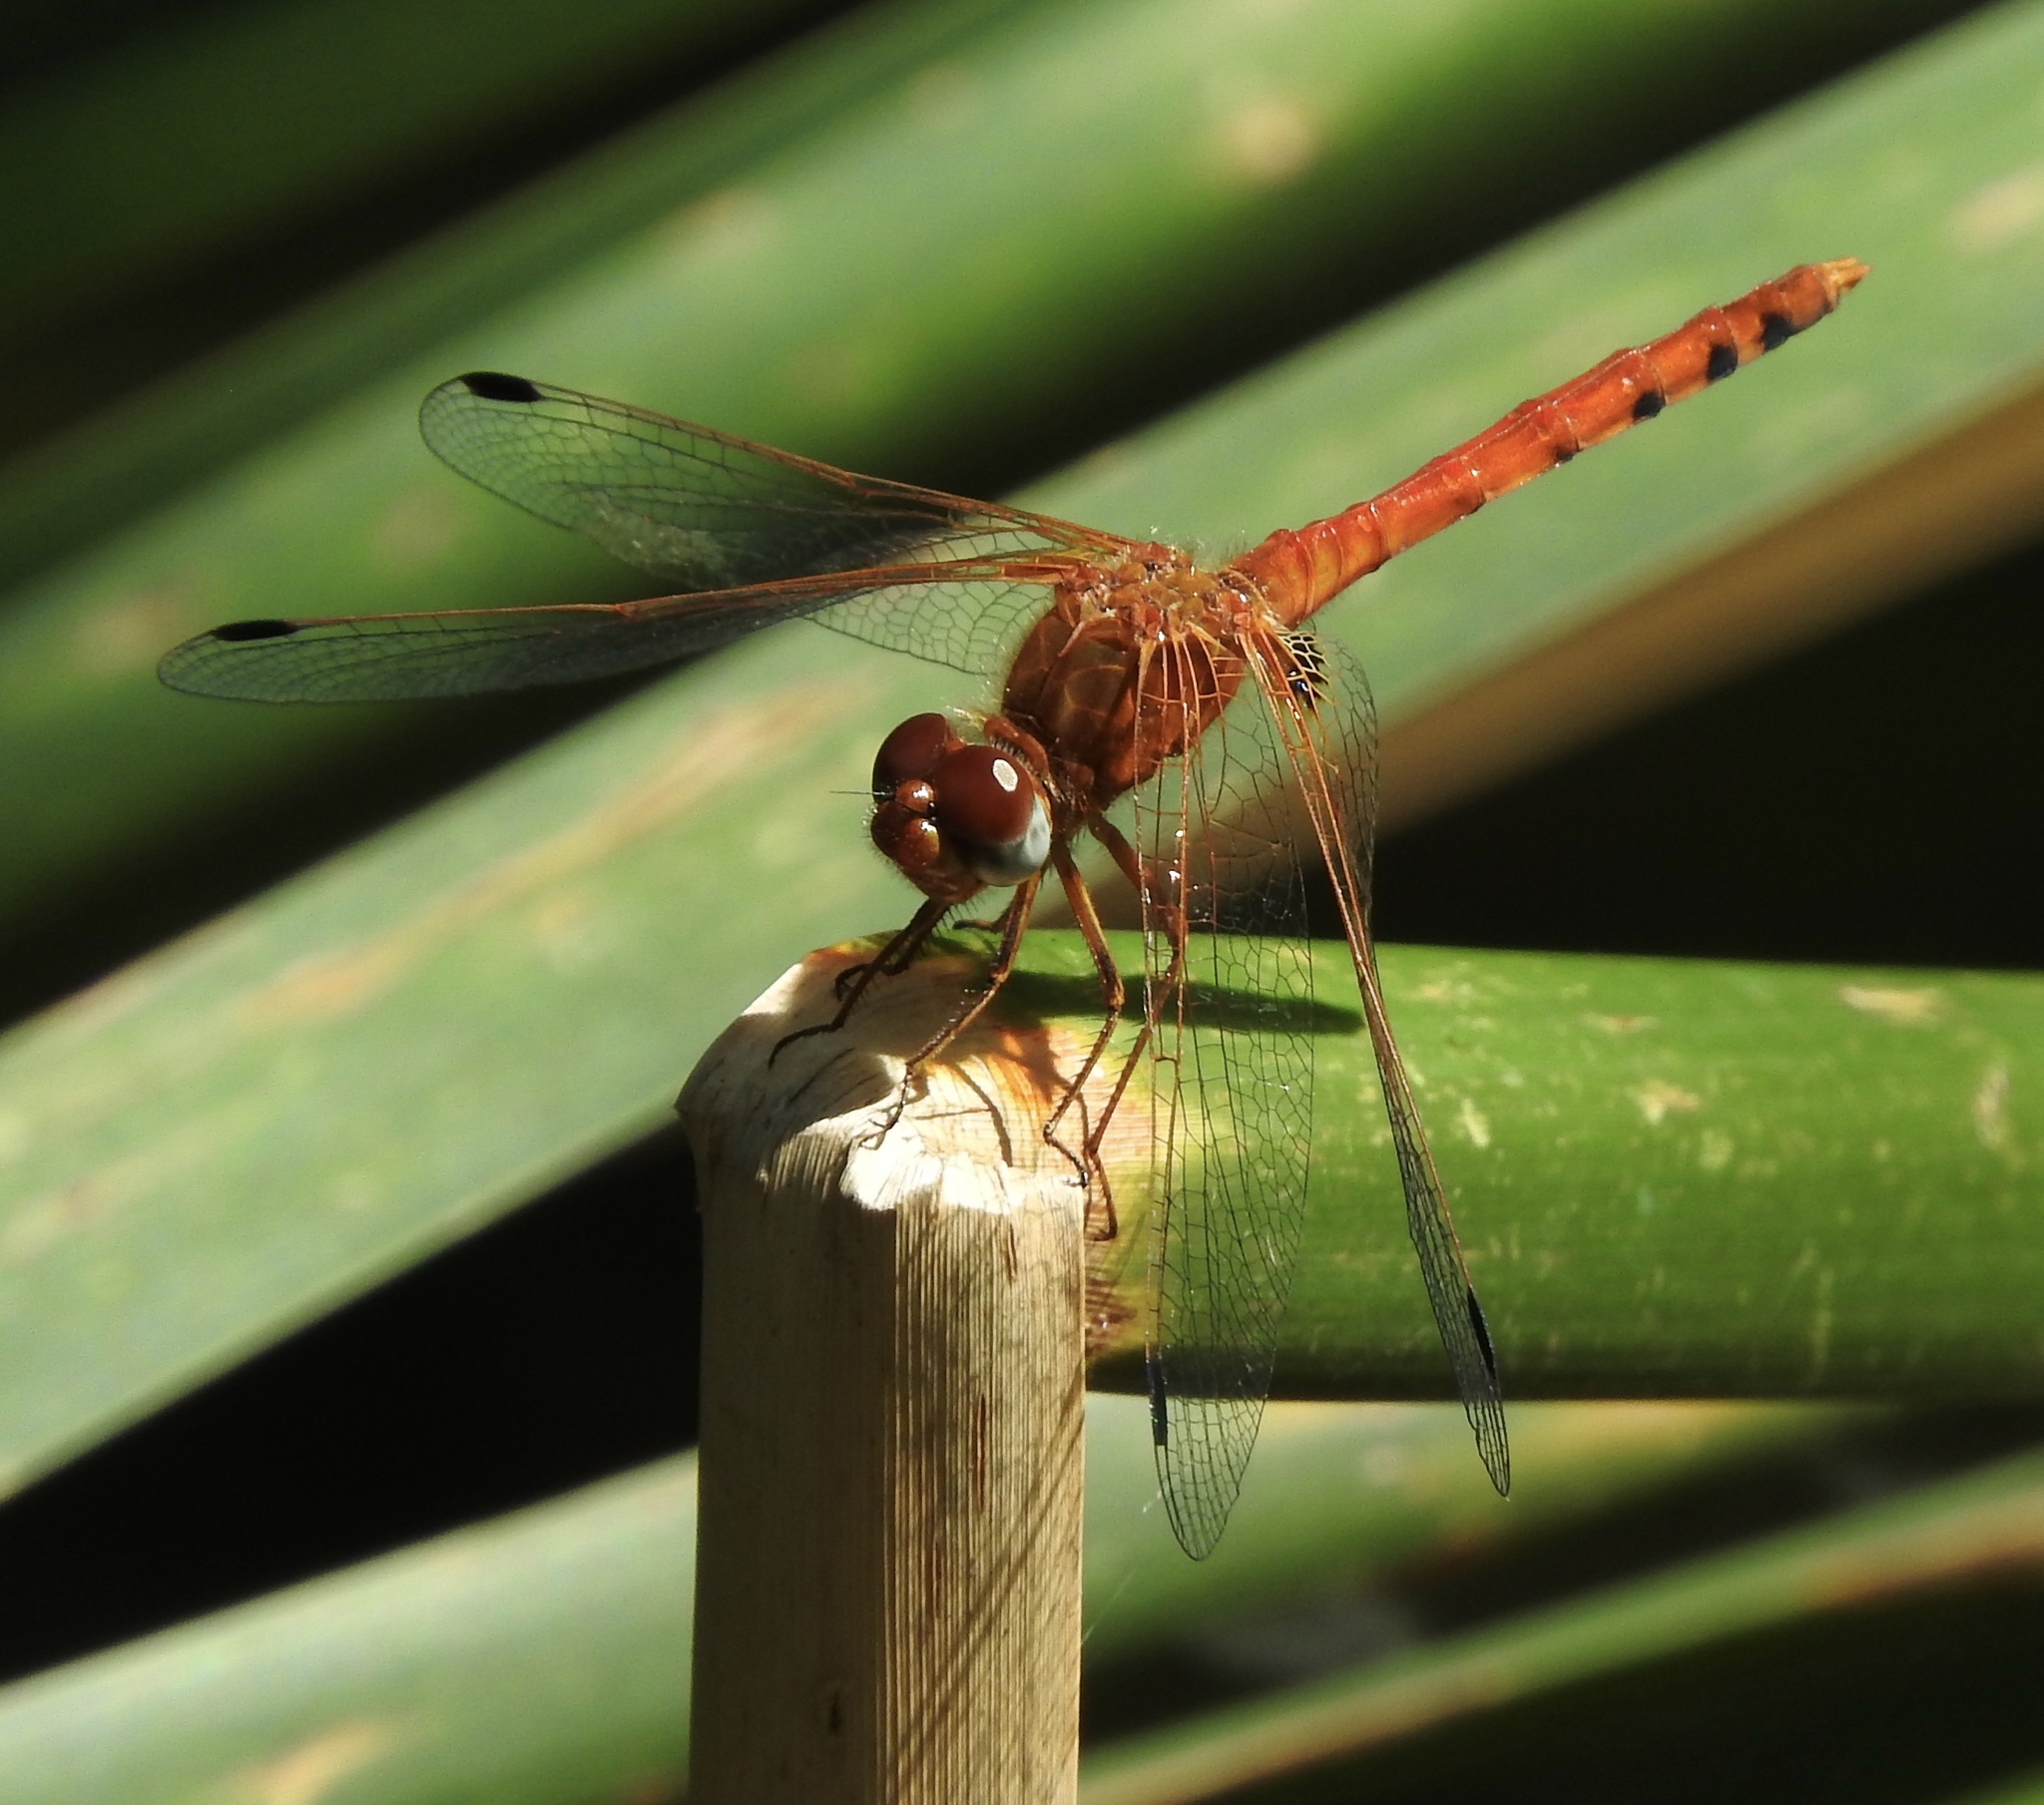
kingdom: Animalia
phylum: Arthropoda
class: Insecta
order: Odonata
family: Libellulidae
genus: Sympetrum
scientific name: Sympetrum signiferum
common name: Spot-winged meadowhawk
